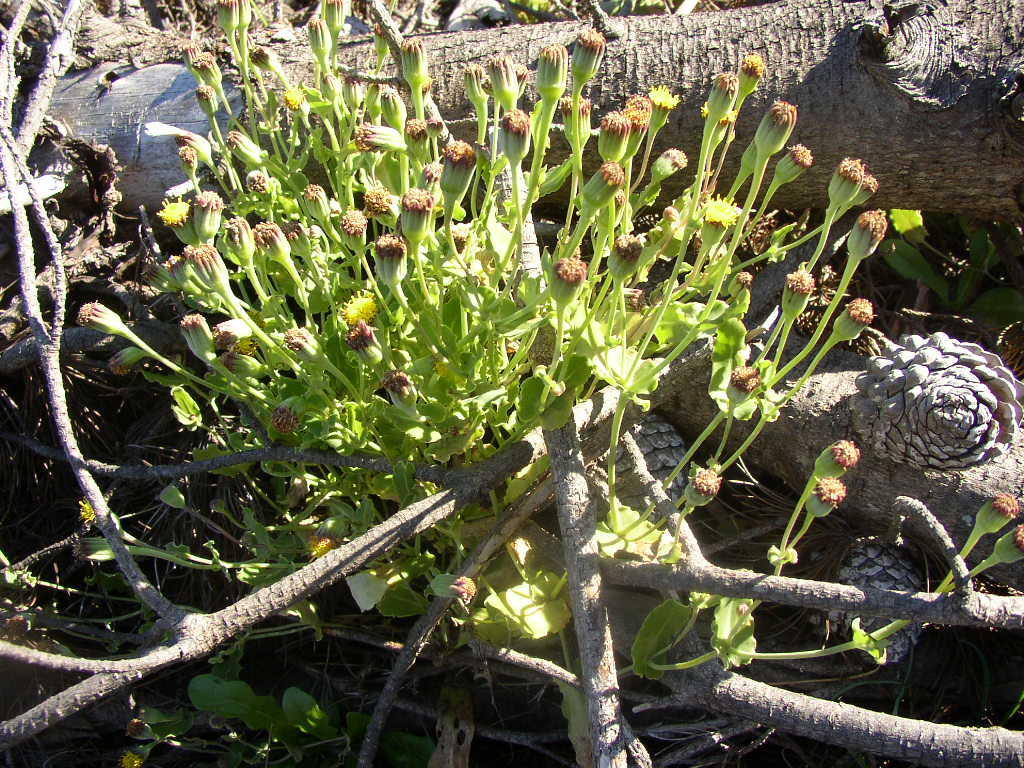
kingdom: Plantae
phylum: Tracheophyta
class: Magnoliopsida
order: Asterales
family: Asteraceae
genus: Othonna
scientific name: Othonna undulosa
